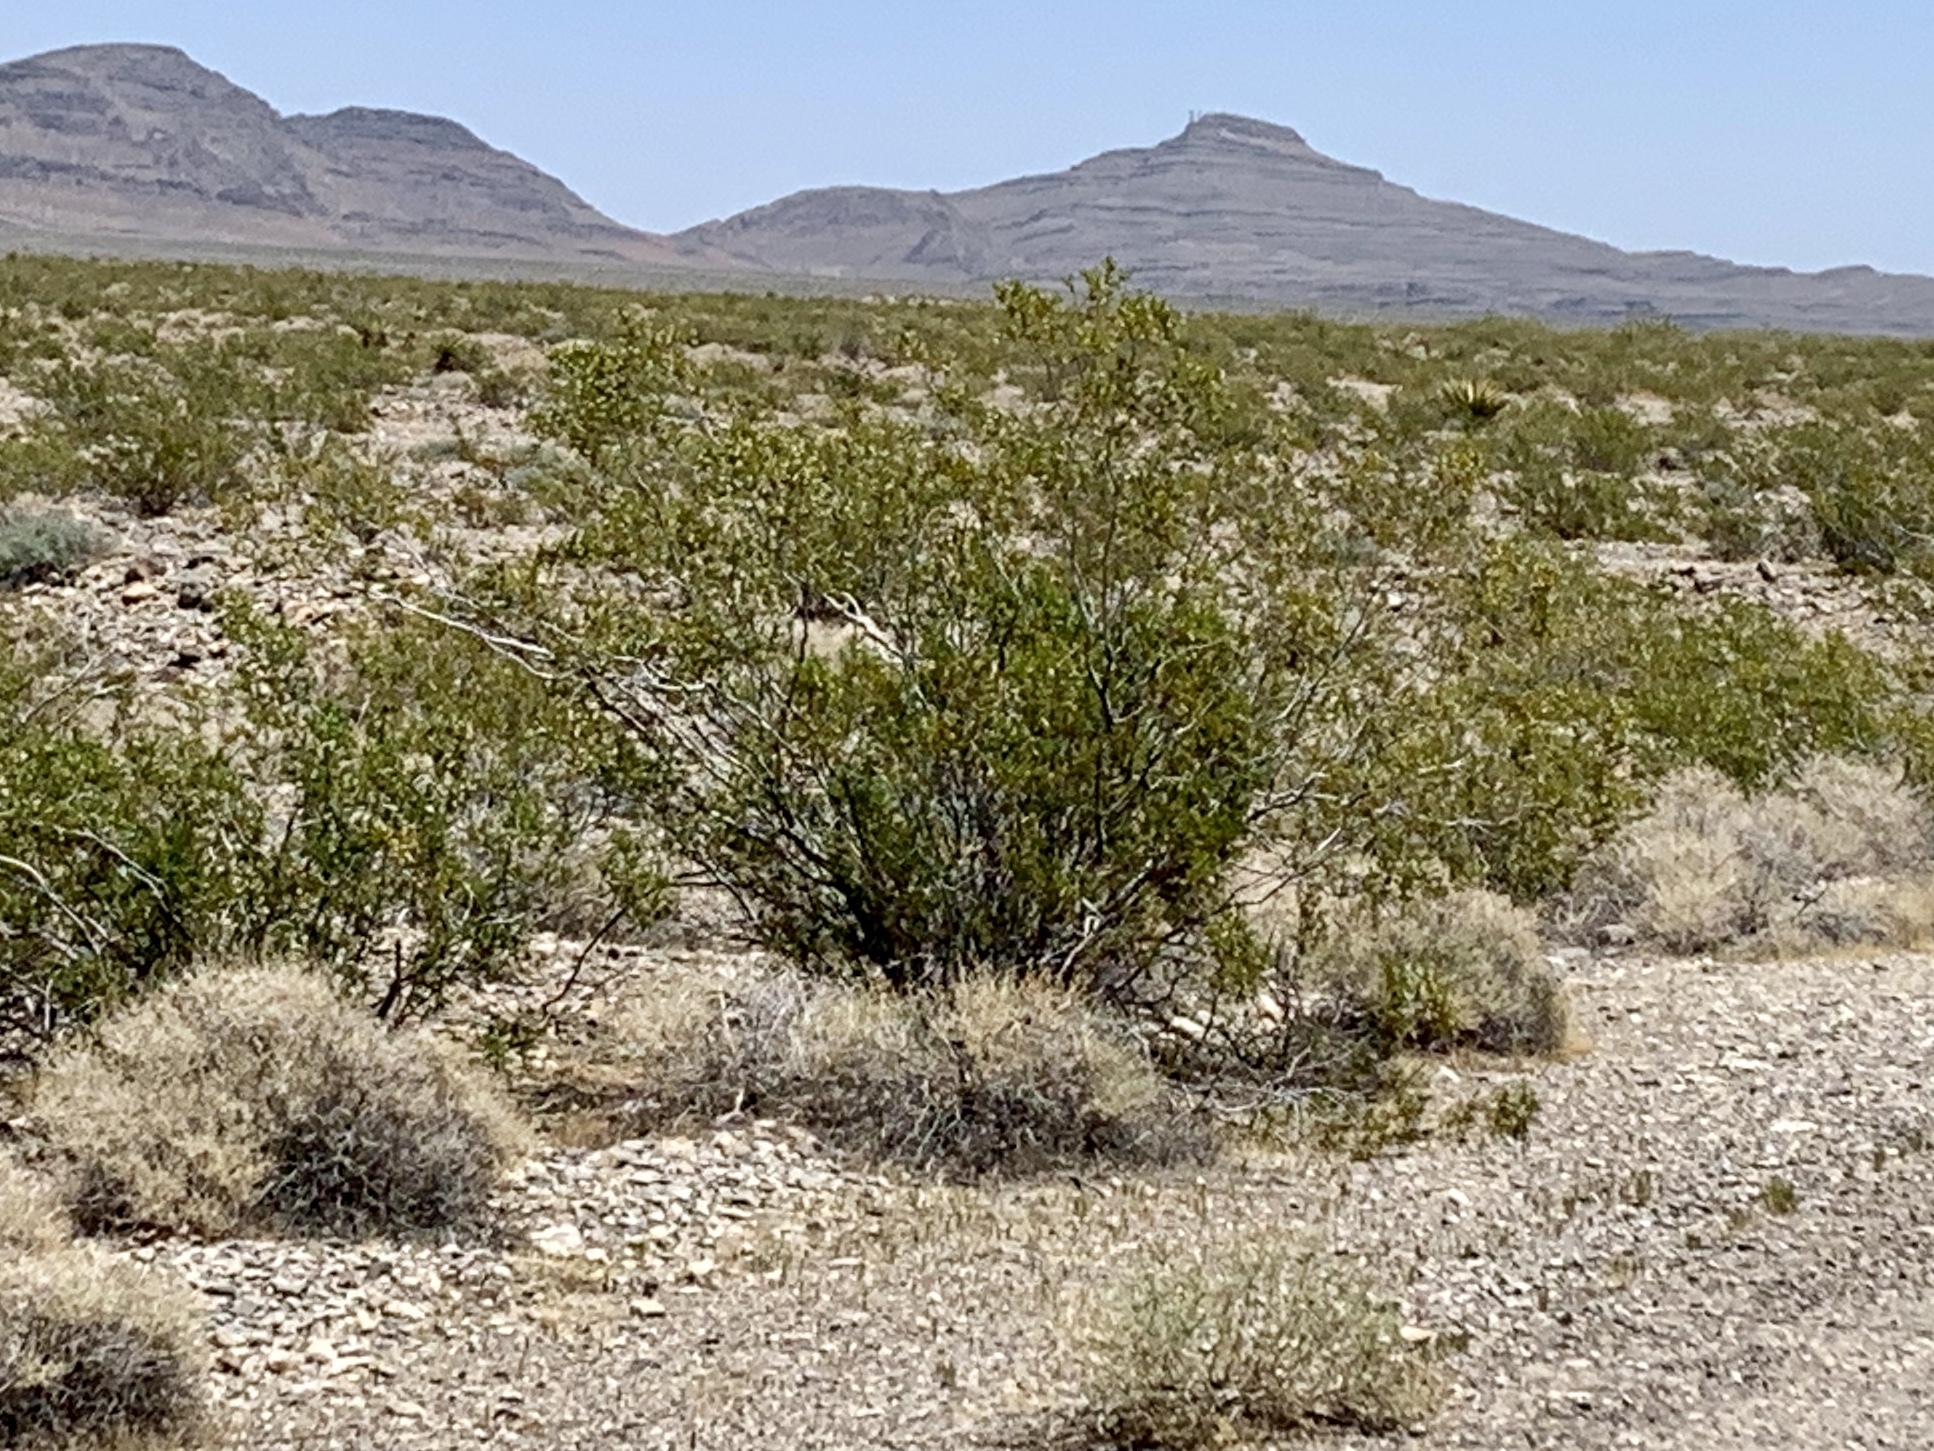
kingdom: Plantae
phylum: Tracheophyta
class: Magnoliopsida
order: Zygophyllales
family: Zygophyllaceae
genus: Larrea
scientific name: Larrea tridentata
